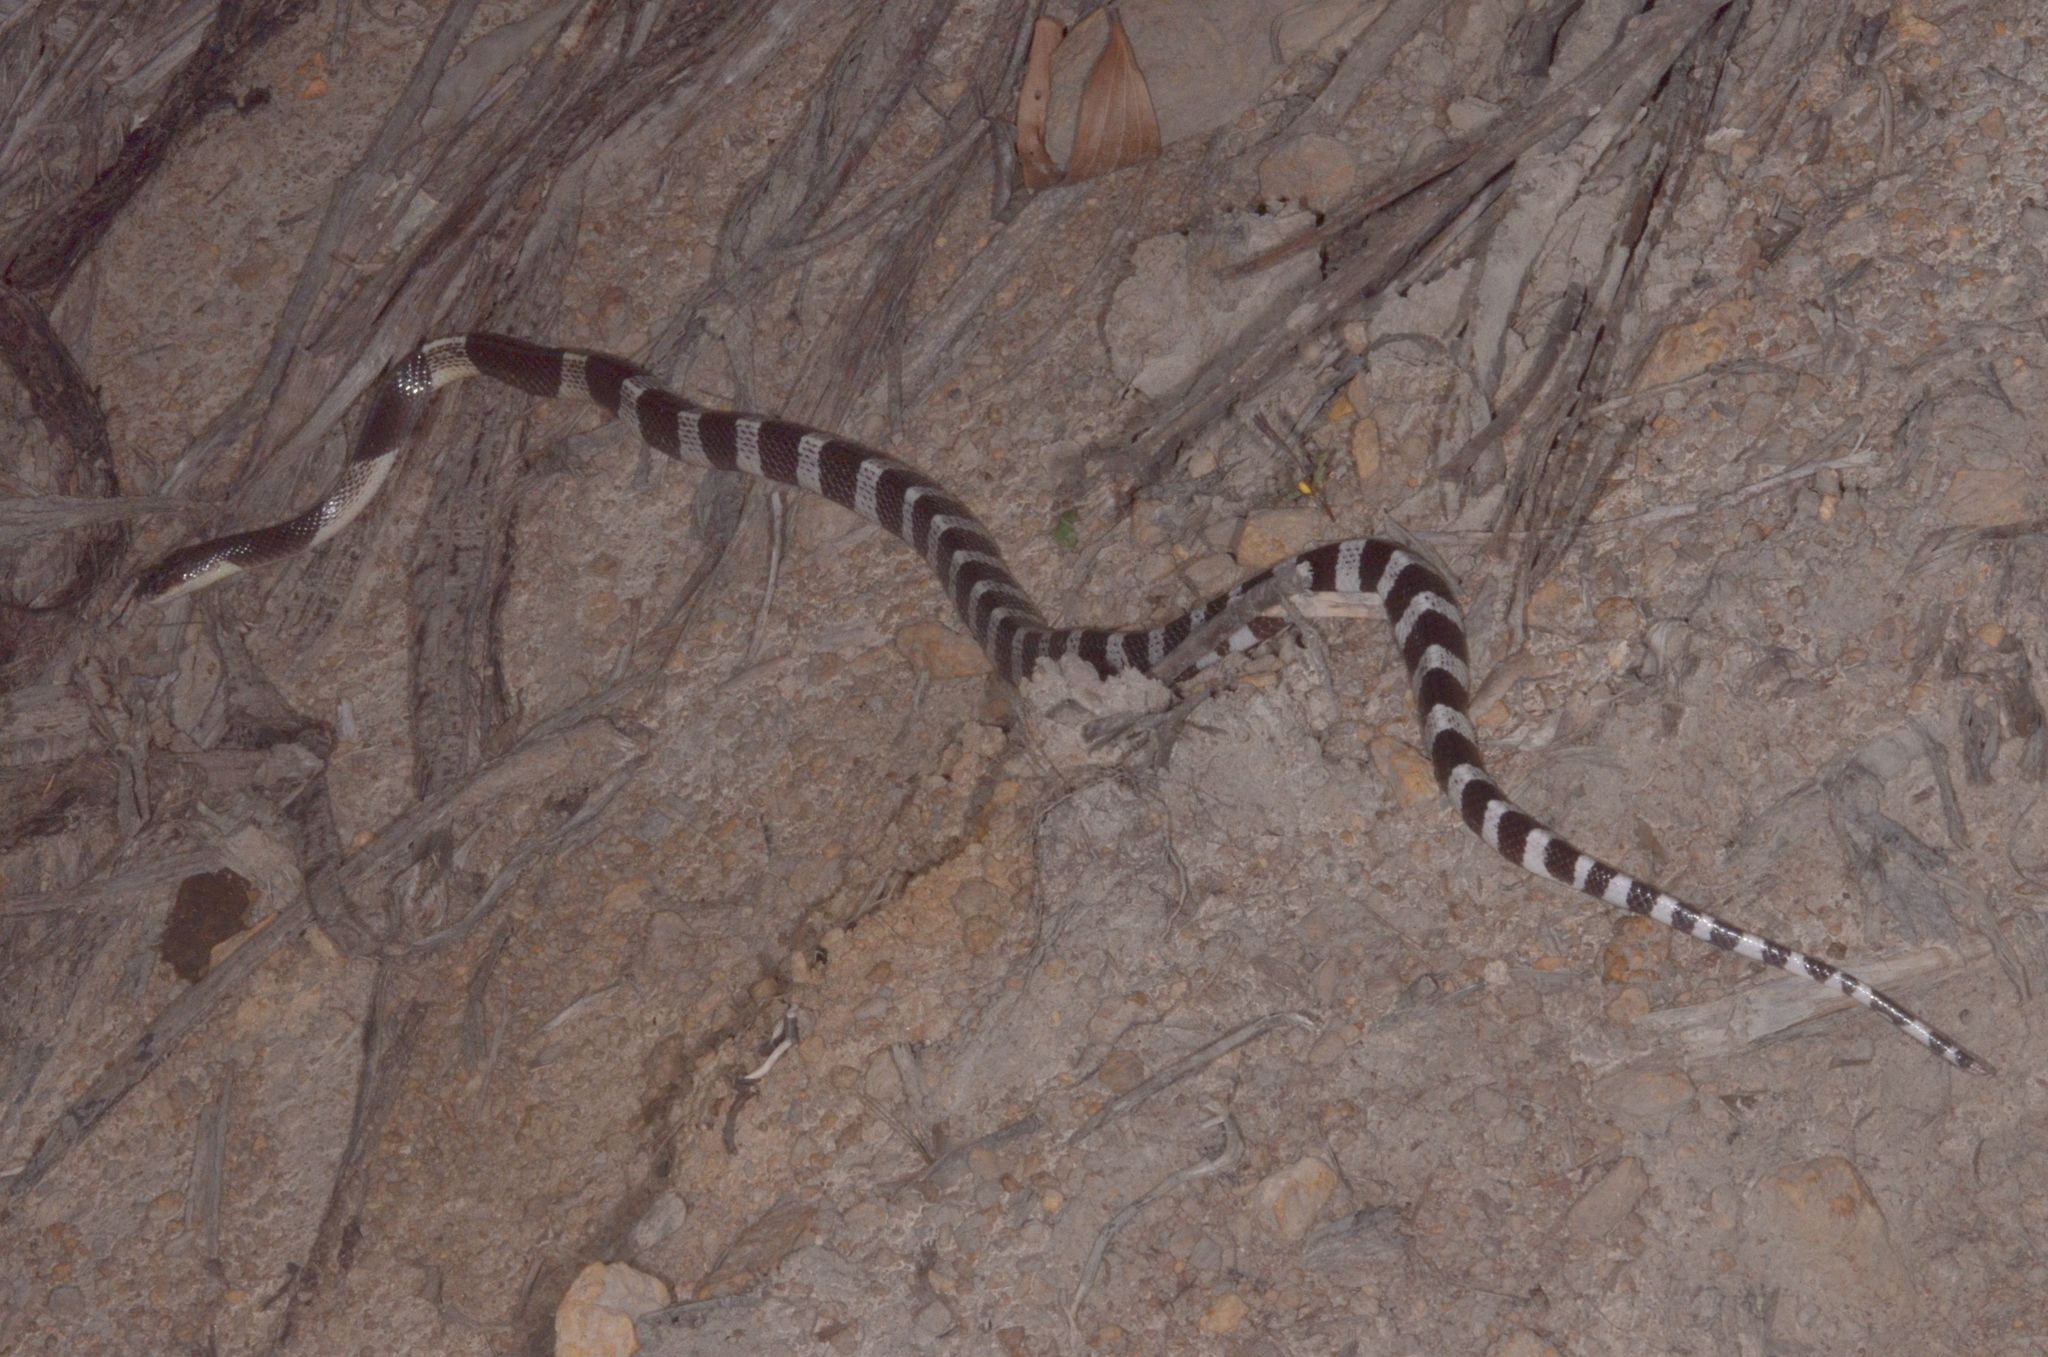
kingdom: Animalia
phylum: Chordata
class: Squamata
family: Elapidae
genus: Bungarus
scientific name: Bungarus candidus
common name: Blue krait/malayan krait
